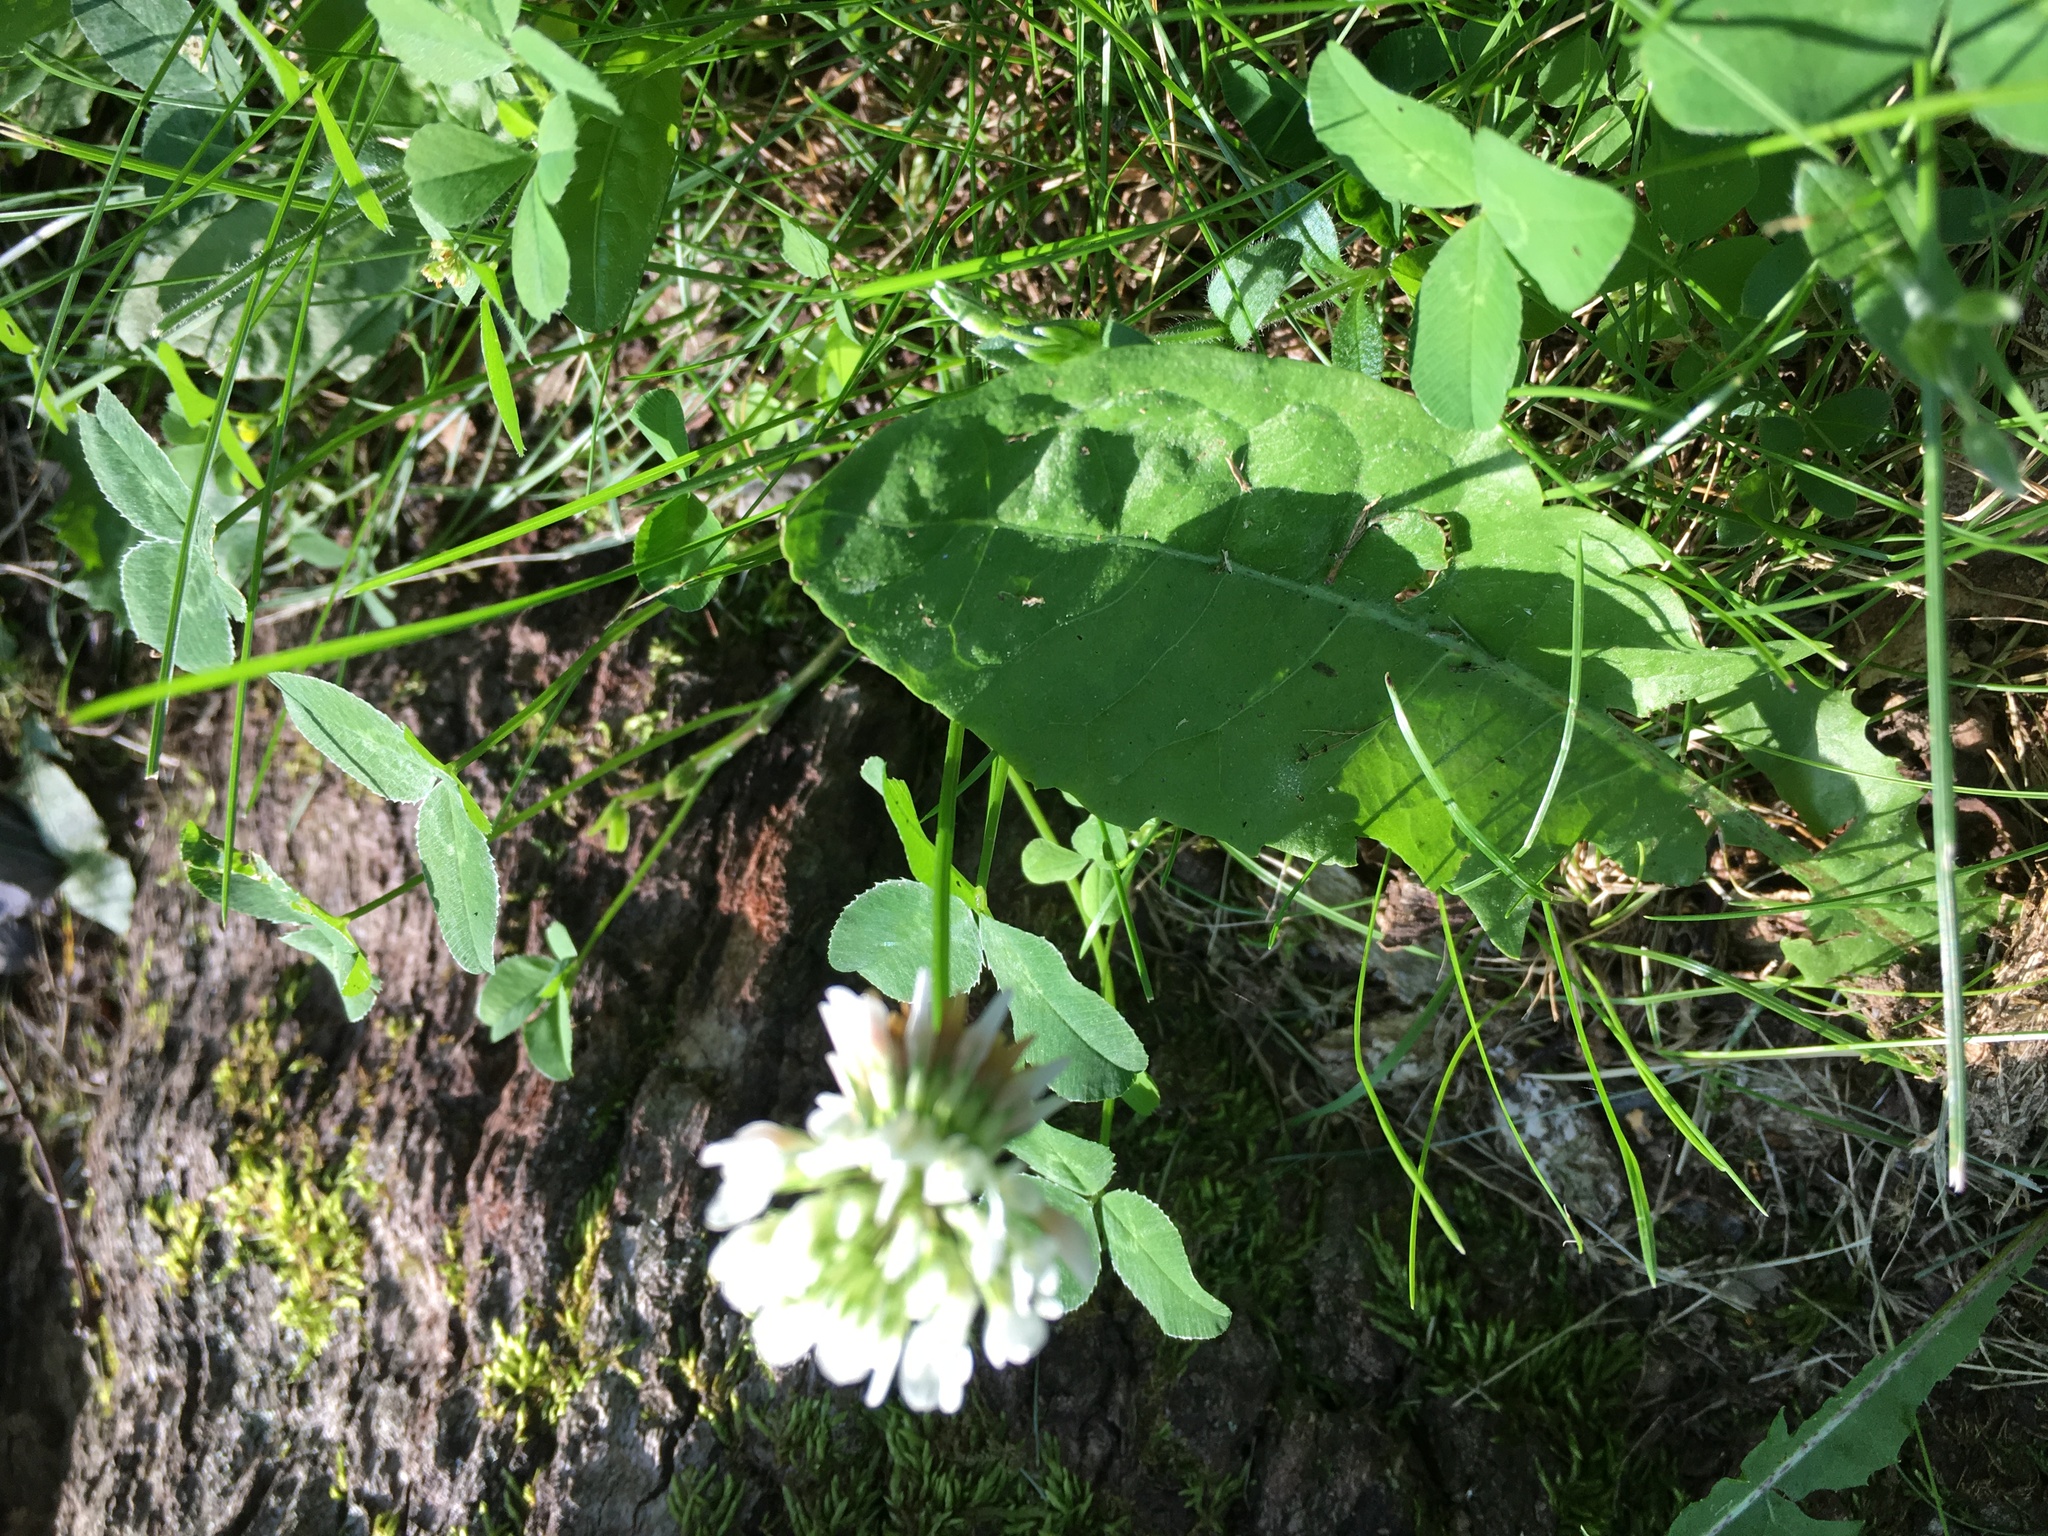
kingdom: Plantae
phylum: Tracheophyta
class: Magnoliopsida
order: Fabales
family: Fabaceae
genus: Trifolium
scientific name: Trifolium repens
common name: White clover
